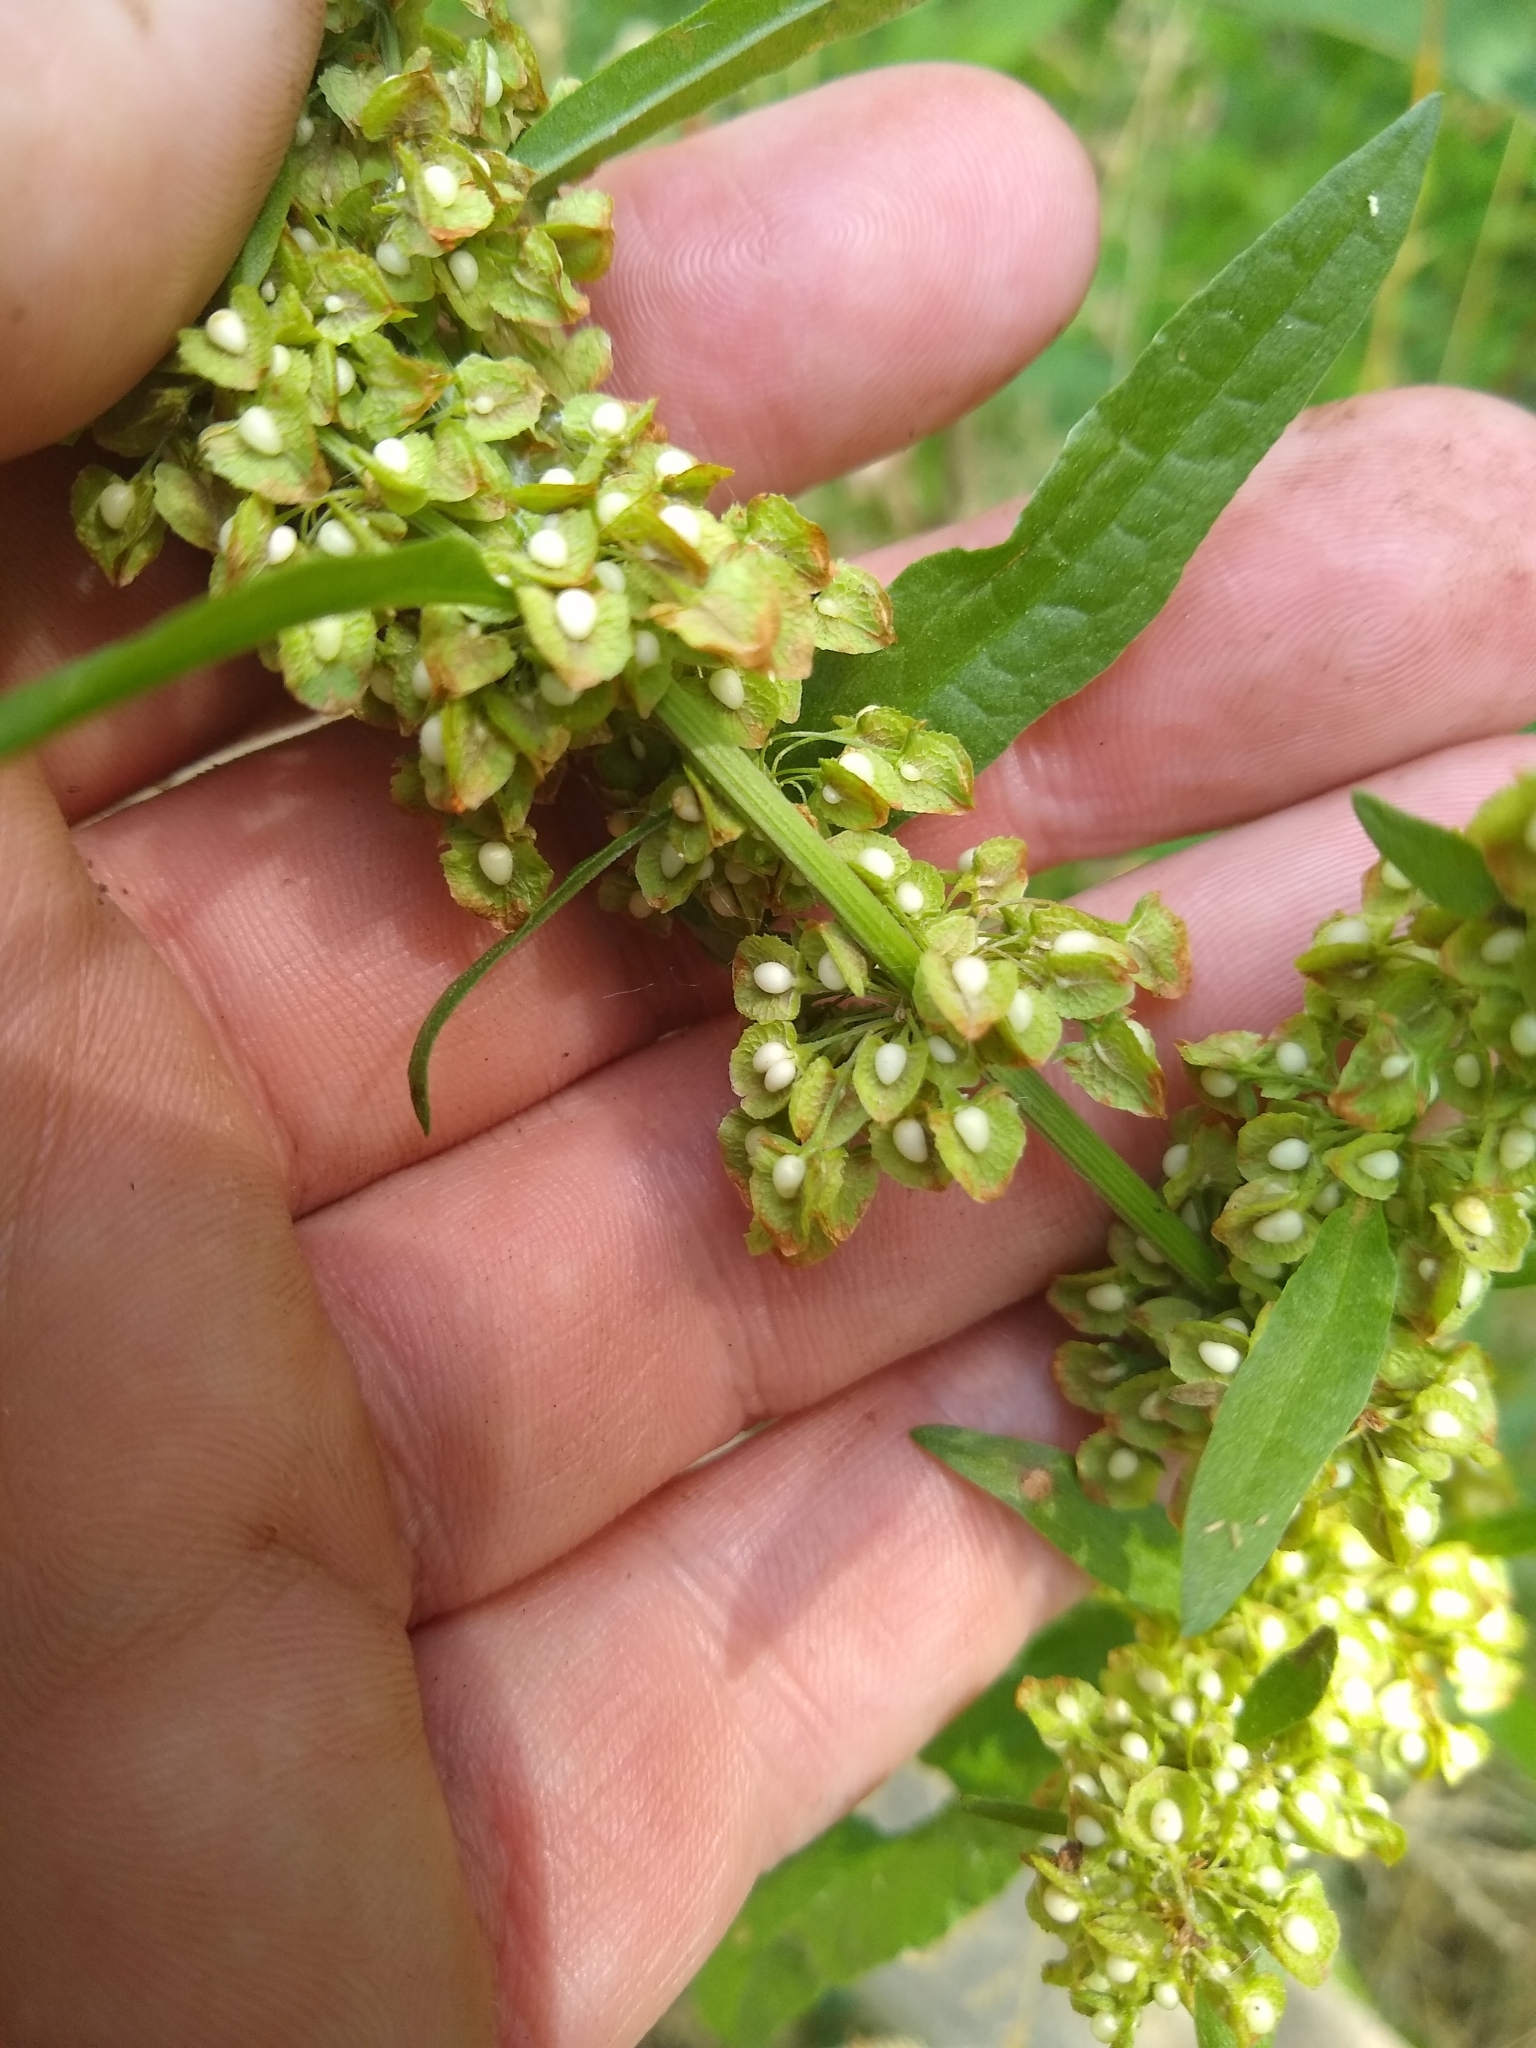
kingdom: Plantae
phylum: Tracheophyta
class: Magnoliopsida
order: Caryophyllales
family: Polygonaceae
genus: Rumex
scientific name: Rumex crispus
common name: Curled dock
